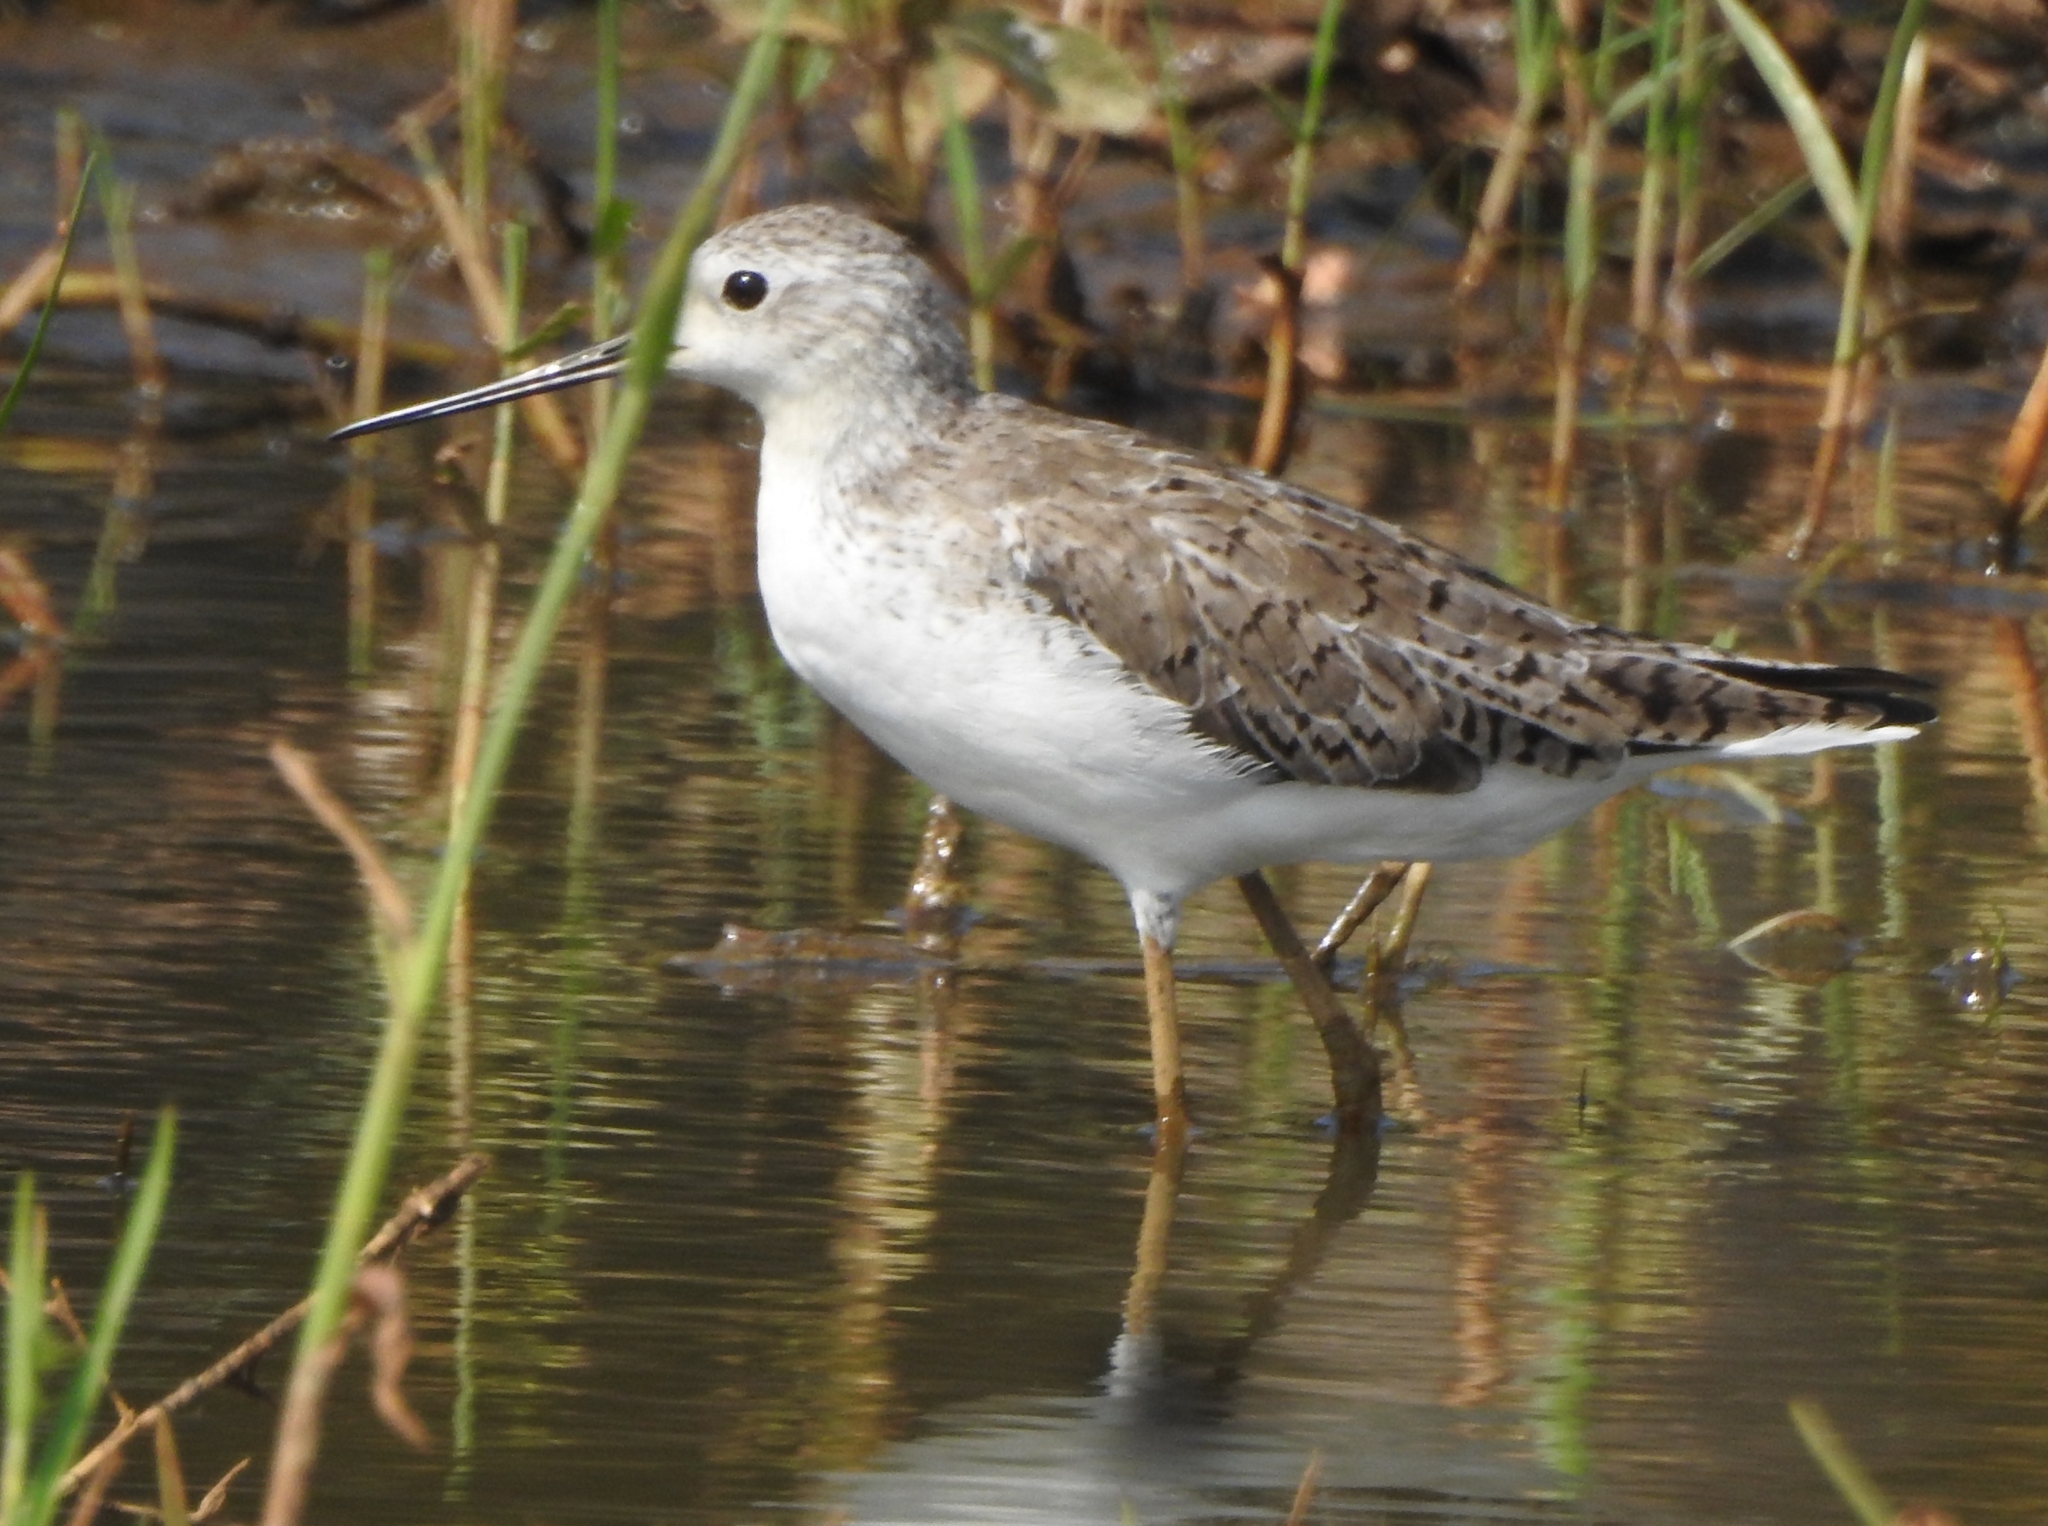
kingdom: Animalia
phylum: Chordata
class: Aves
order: Charadriiformes
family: Scolopacidae
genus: Tringa
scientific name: Tringa stagnatilis
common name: Marsh sandpiper
